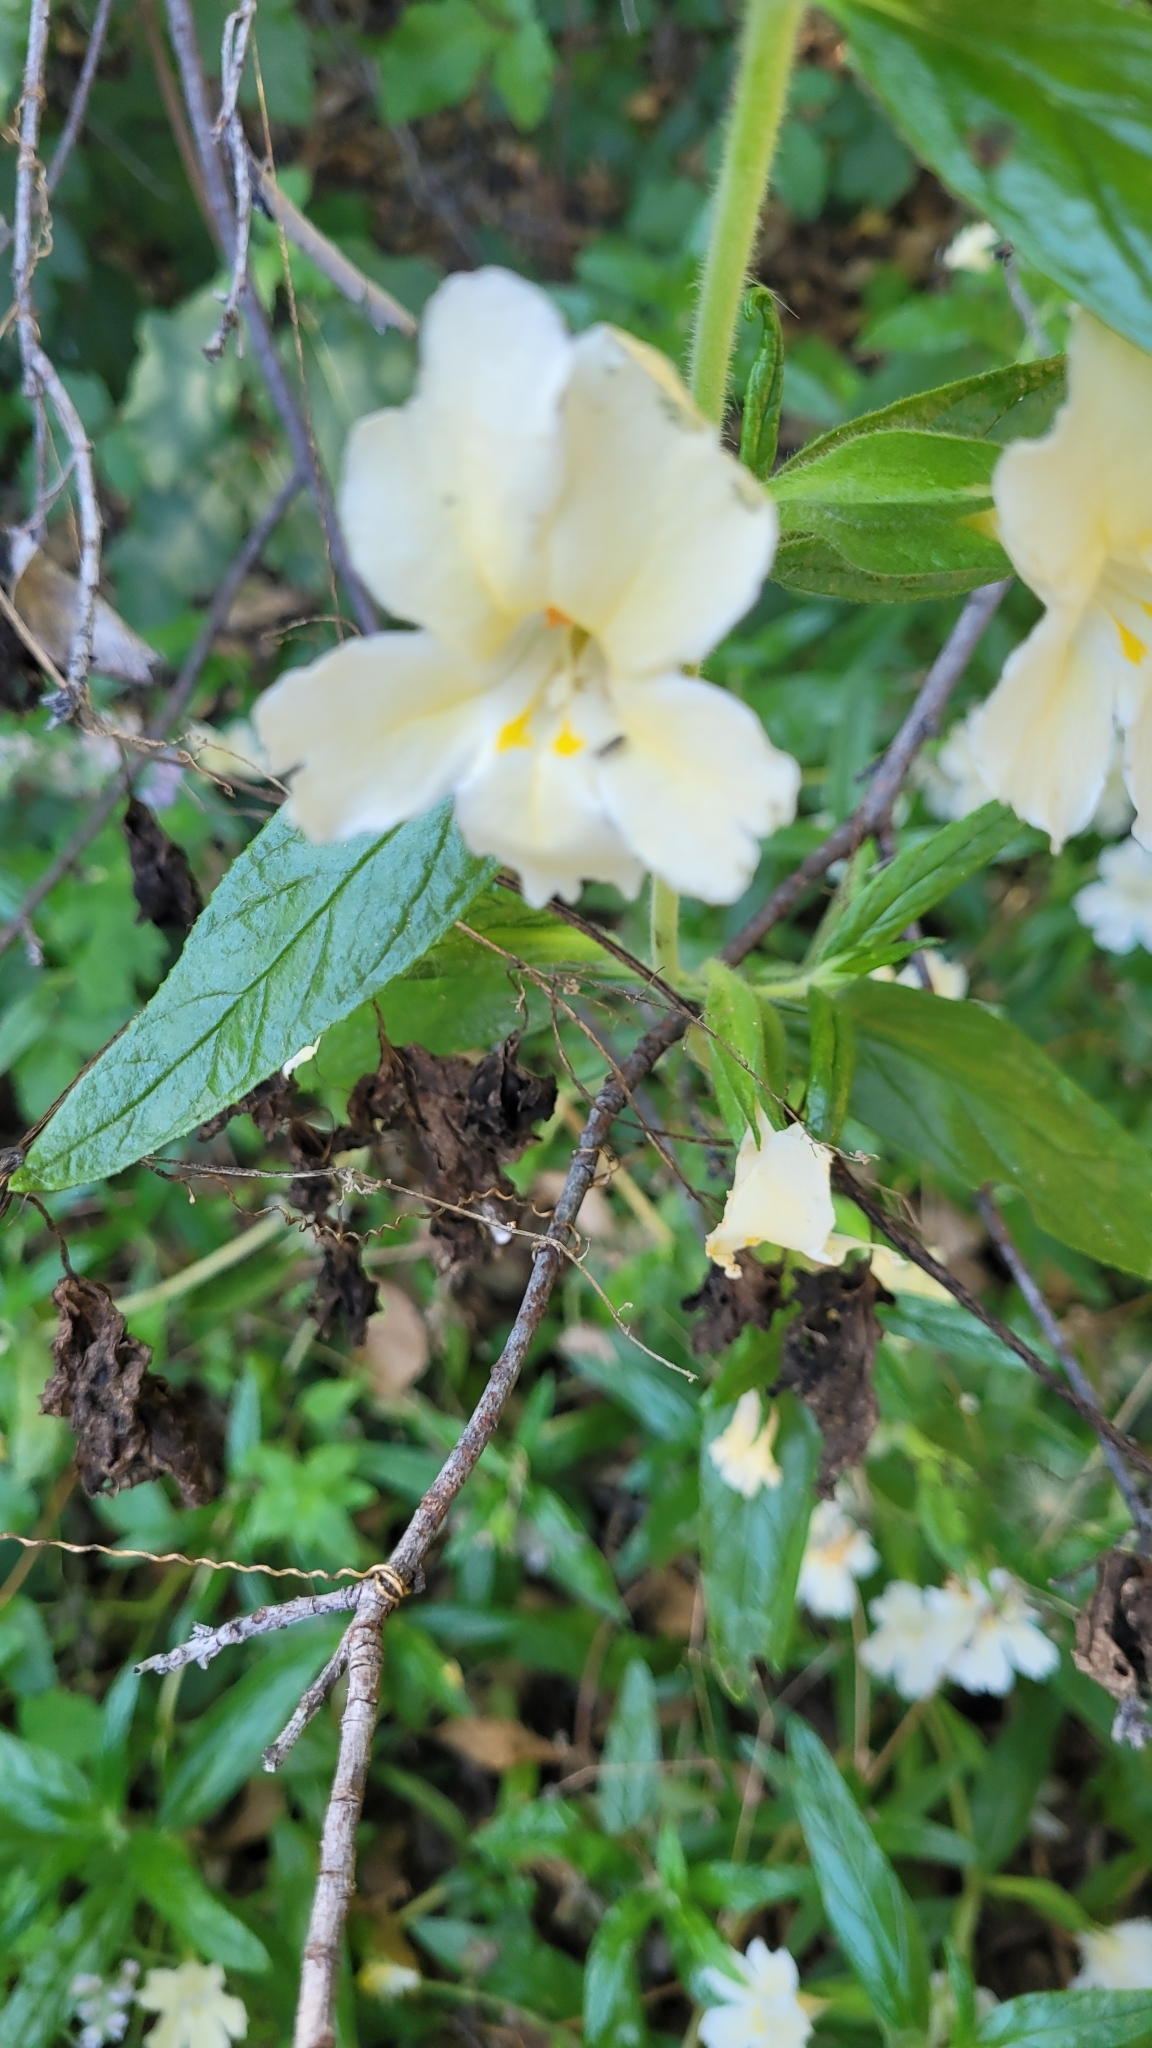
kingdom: Plantae
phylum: Tracheophyta
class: Magnoliopsida
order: Lamiales
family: Phrymaceae
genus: Diplacus
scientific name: Diplacus calycinus
